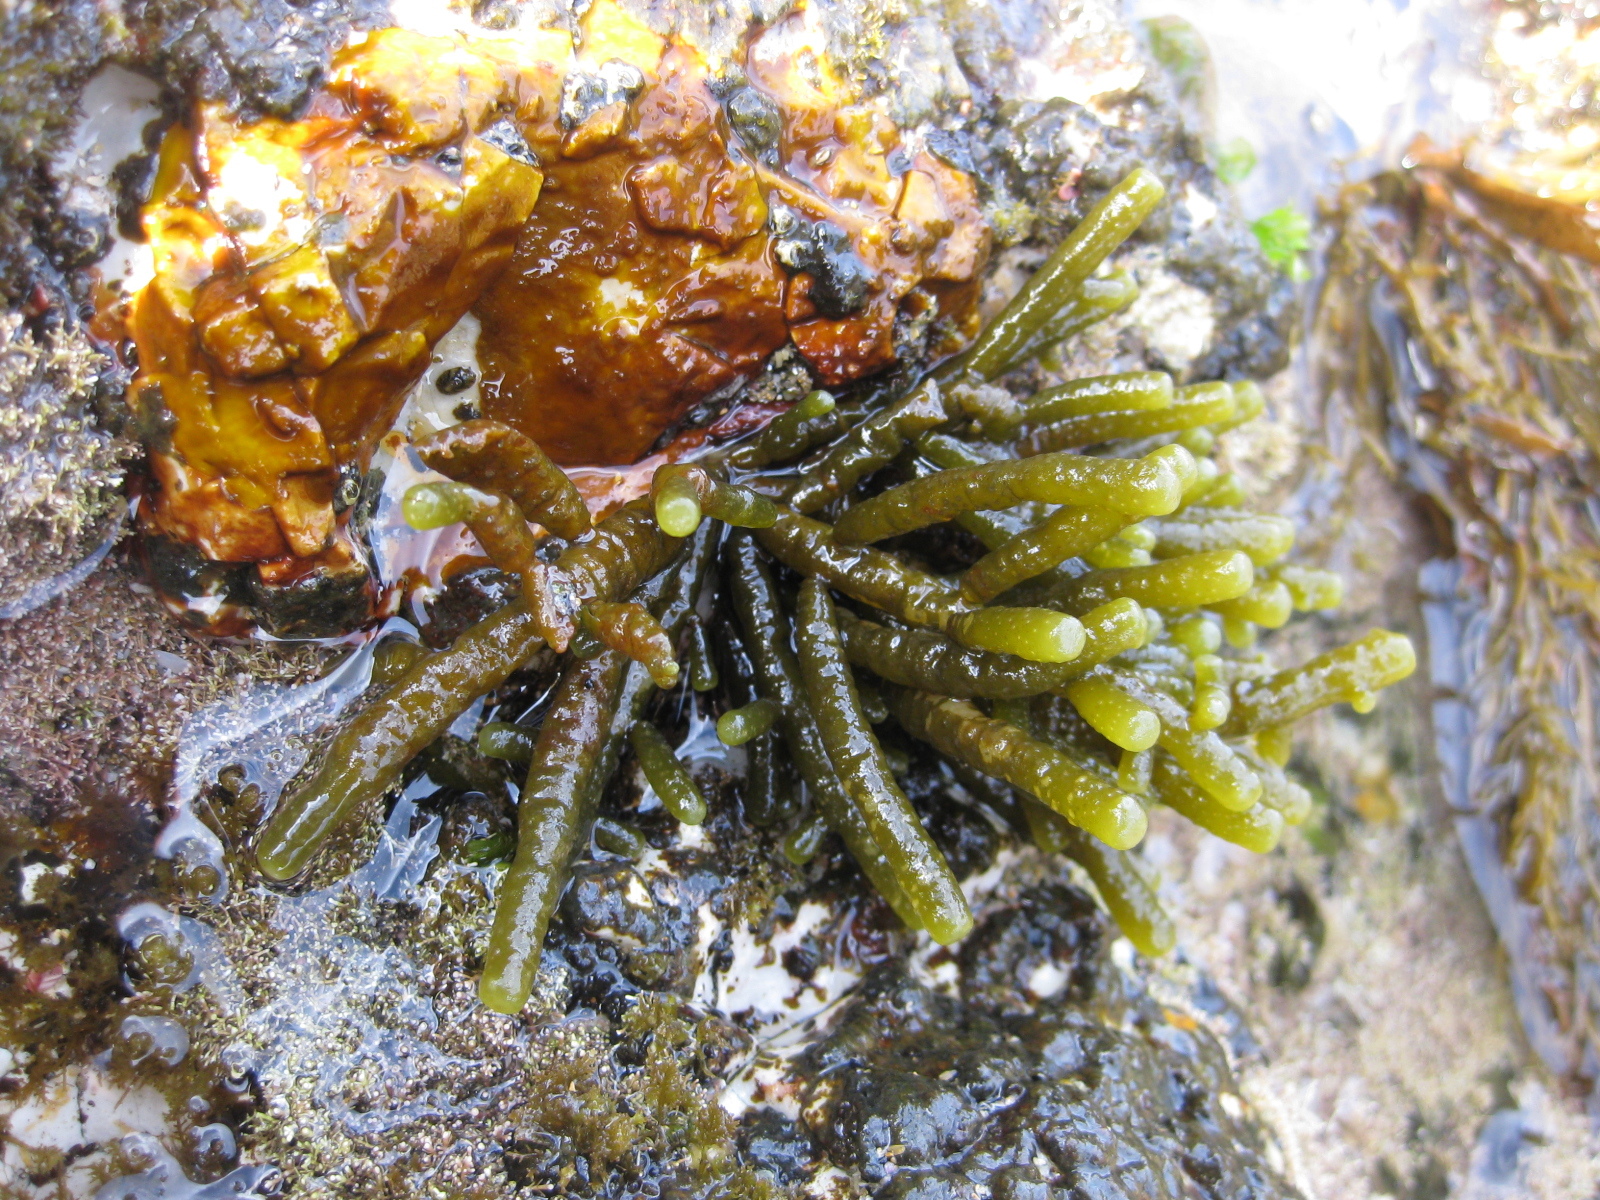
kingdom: Chromista
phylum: Ochrophyta
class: Phaeophyceae
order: Scytothamnales
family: Splachnidiaceae
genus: Splachnidium
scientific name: Splachnidium rugosum
